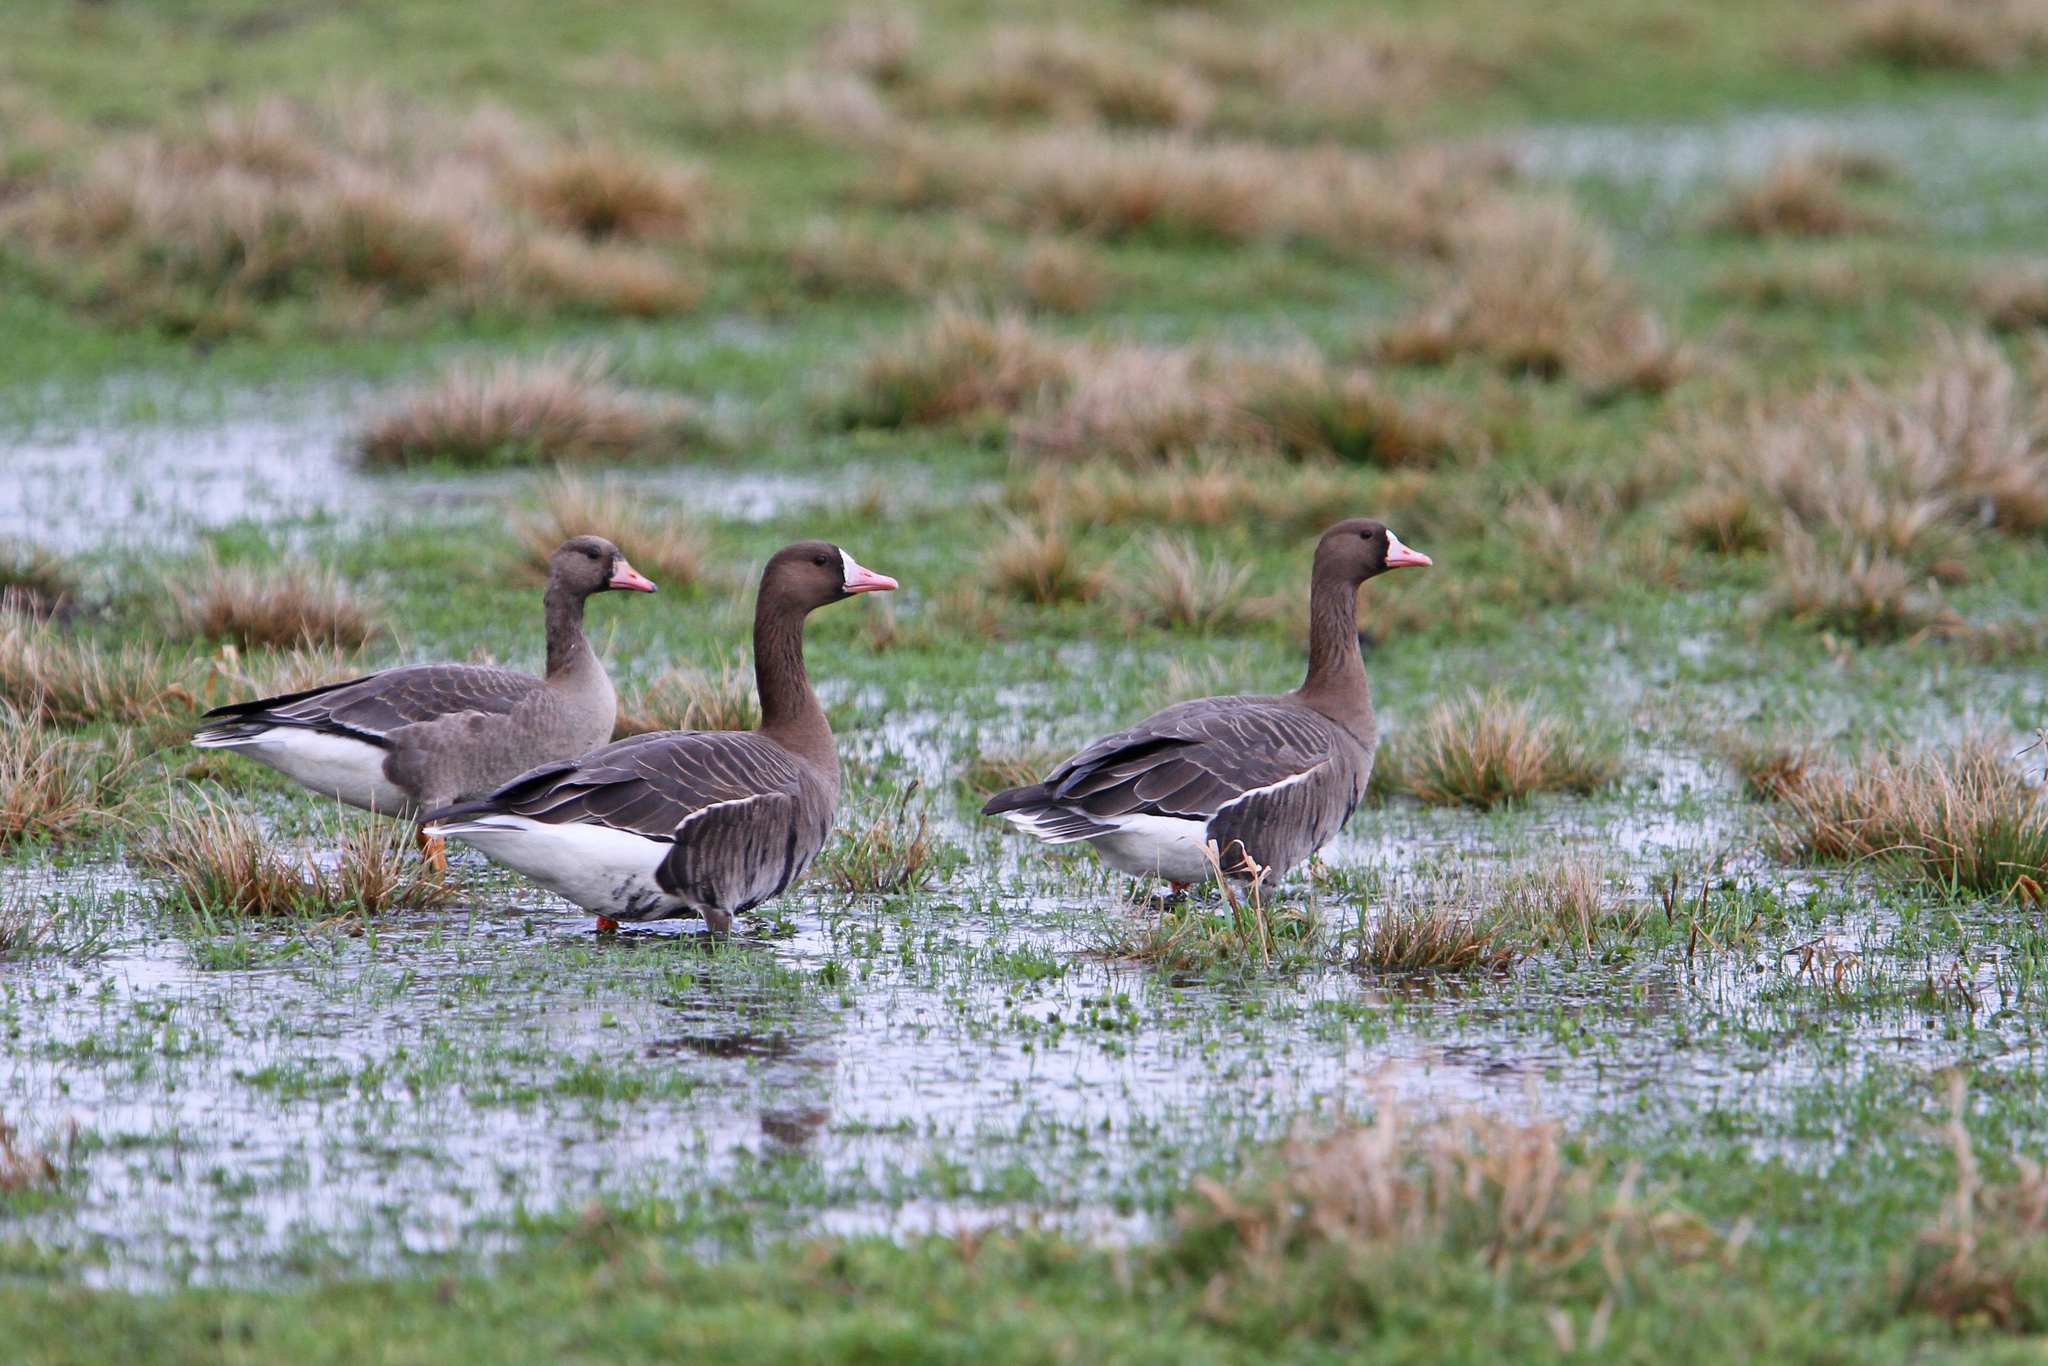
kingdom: Animalia
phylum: Chordata
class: Aves
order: Anseriformes
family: Anatidae
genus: Anser
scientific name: Anser albifrons
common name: Greater white-fronted goose
